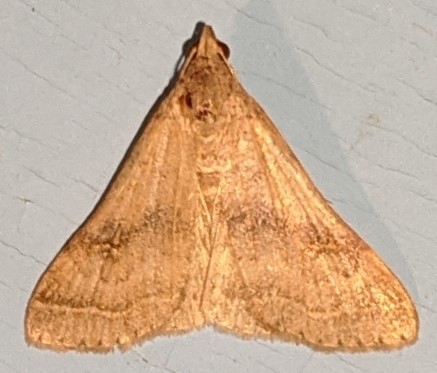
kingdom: Animalia
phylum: Arthropoda
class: Insecta
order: Lepidoptera
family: Erebidae
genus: Bleptina
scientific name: Bleptina caradrinalis
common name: Bent-winged owlet
